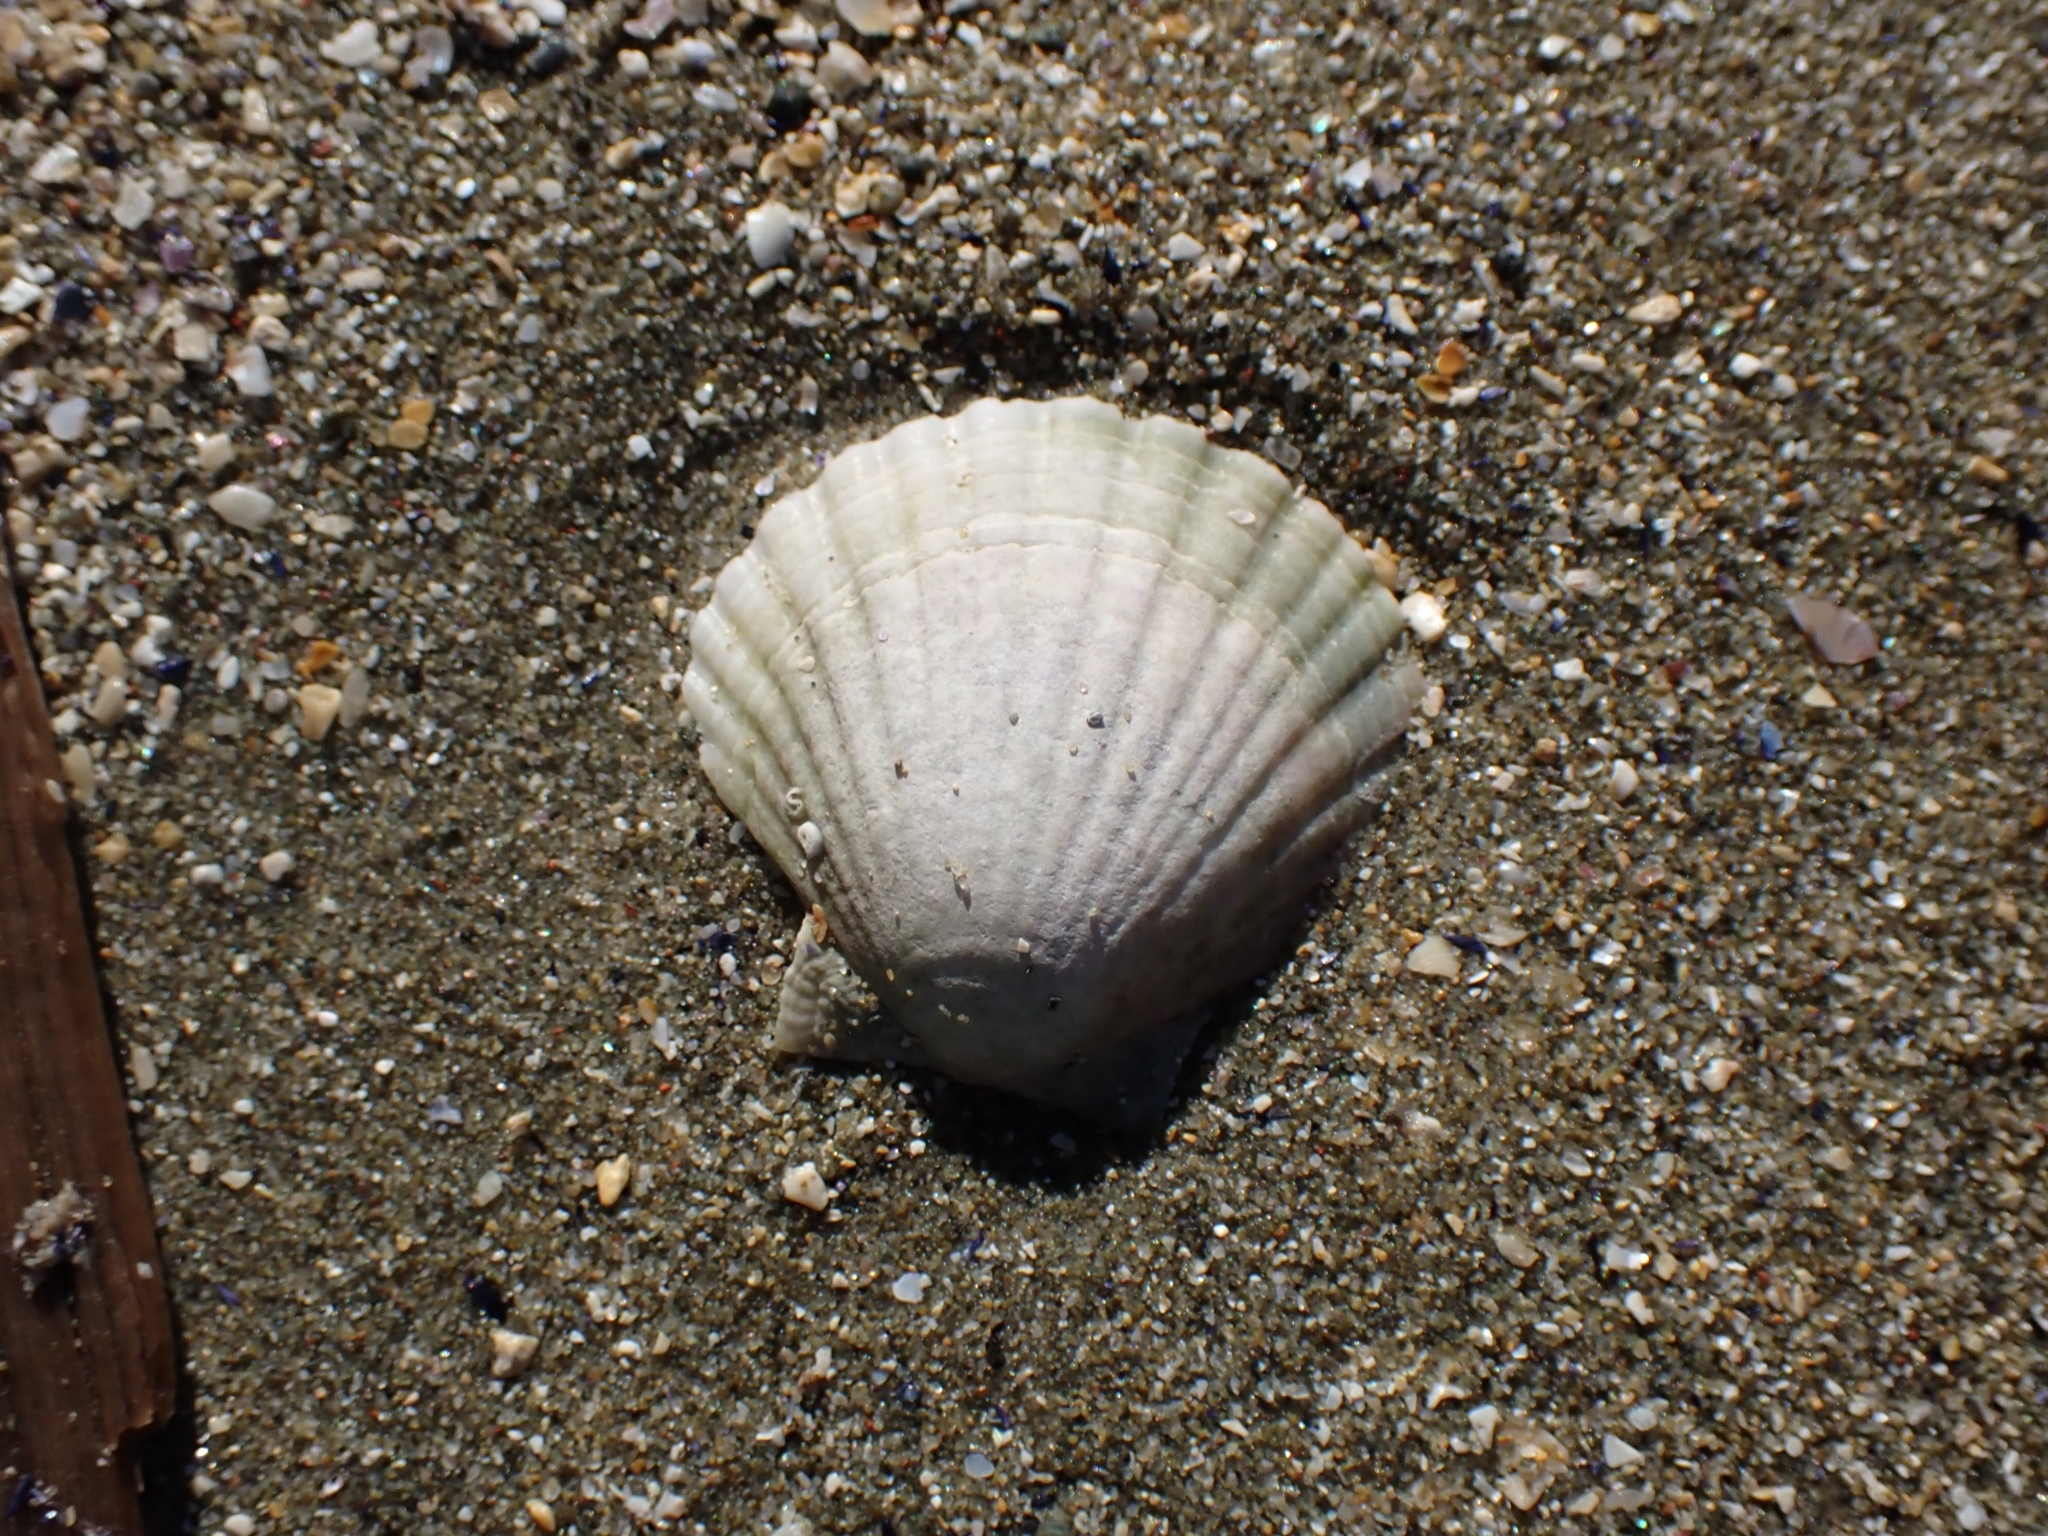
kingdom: Animalia
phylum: Mollusca
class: Bivalvia
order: Pectinida
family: Pectinidae
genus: Pecten
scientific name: Pecten novaezelandiae
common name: New zealand scallop
